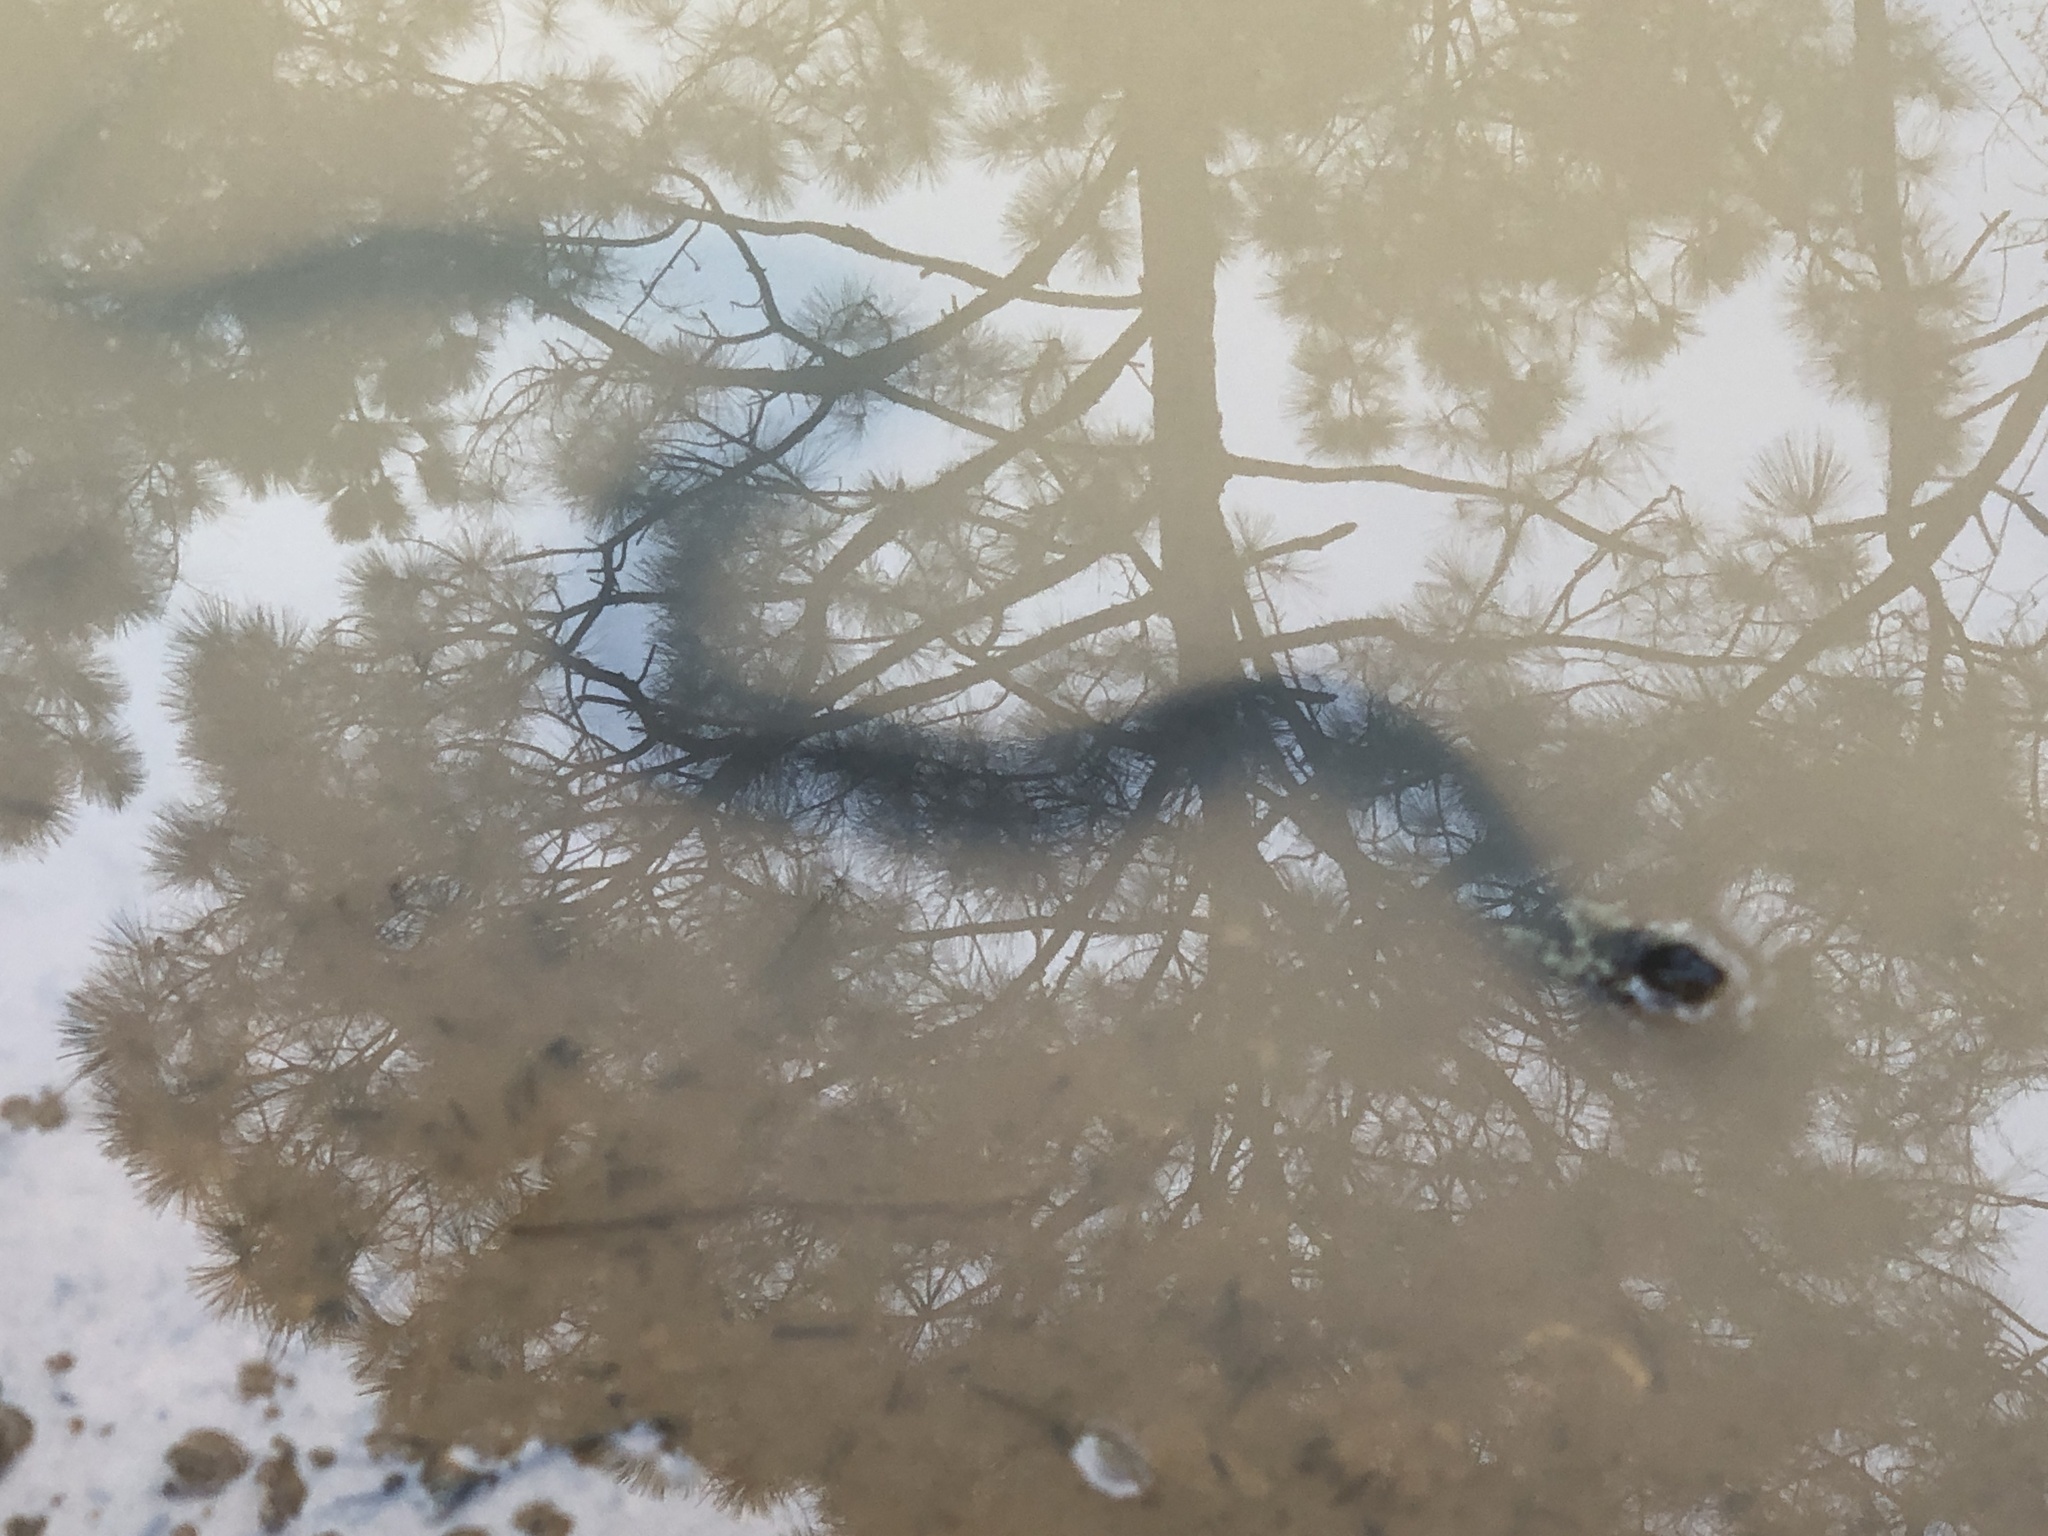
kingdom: Animalia
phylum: Chordata
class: Squamata
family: Colubridae
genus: Nerodia
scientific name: Nerodia fasciata
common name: Southern water snake
